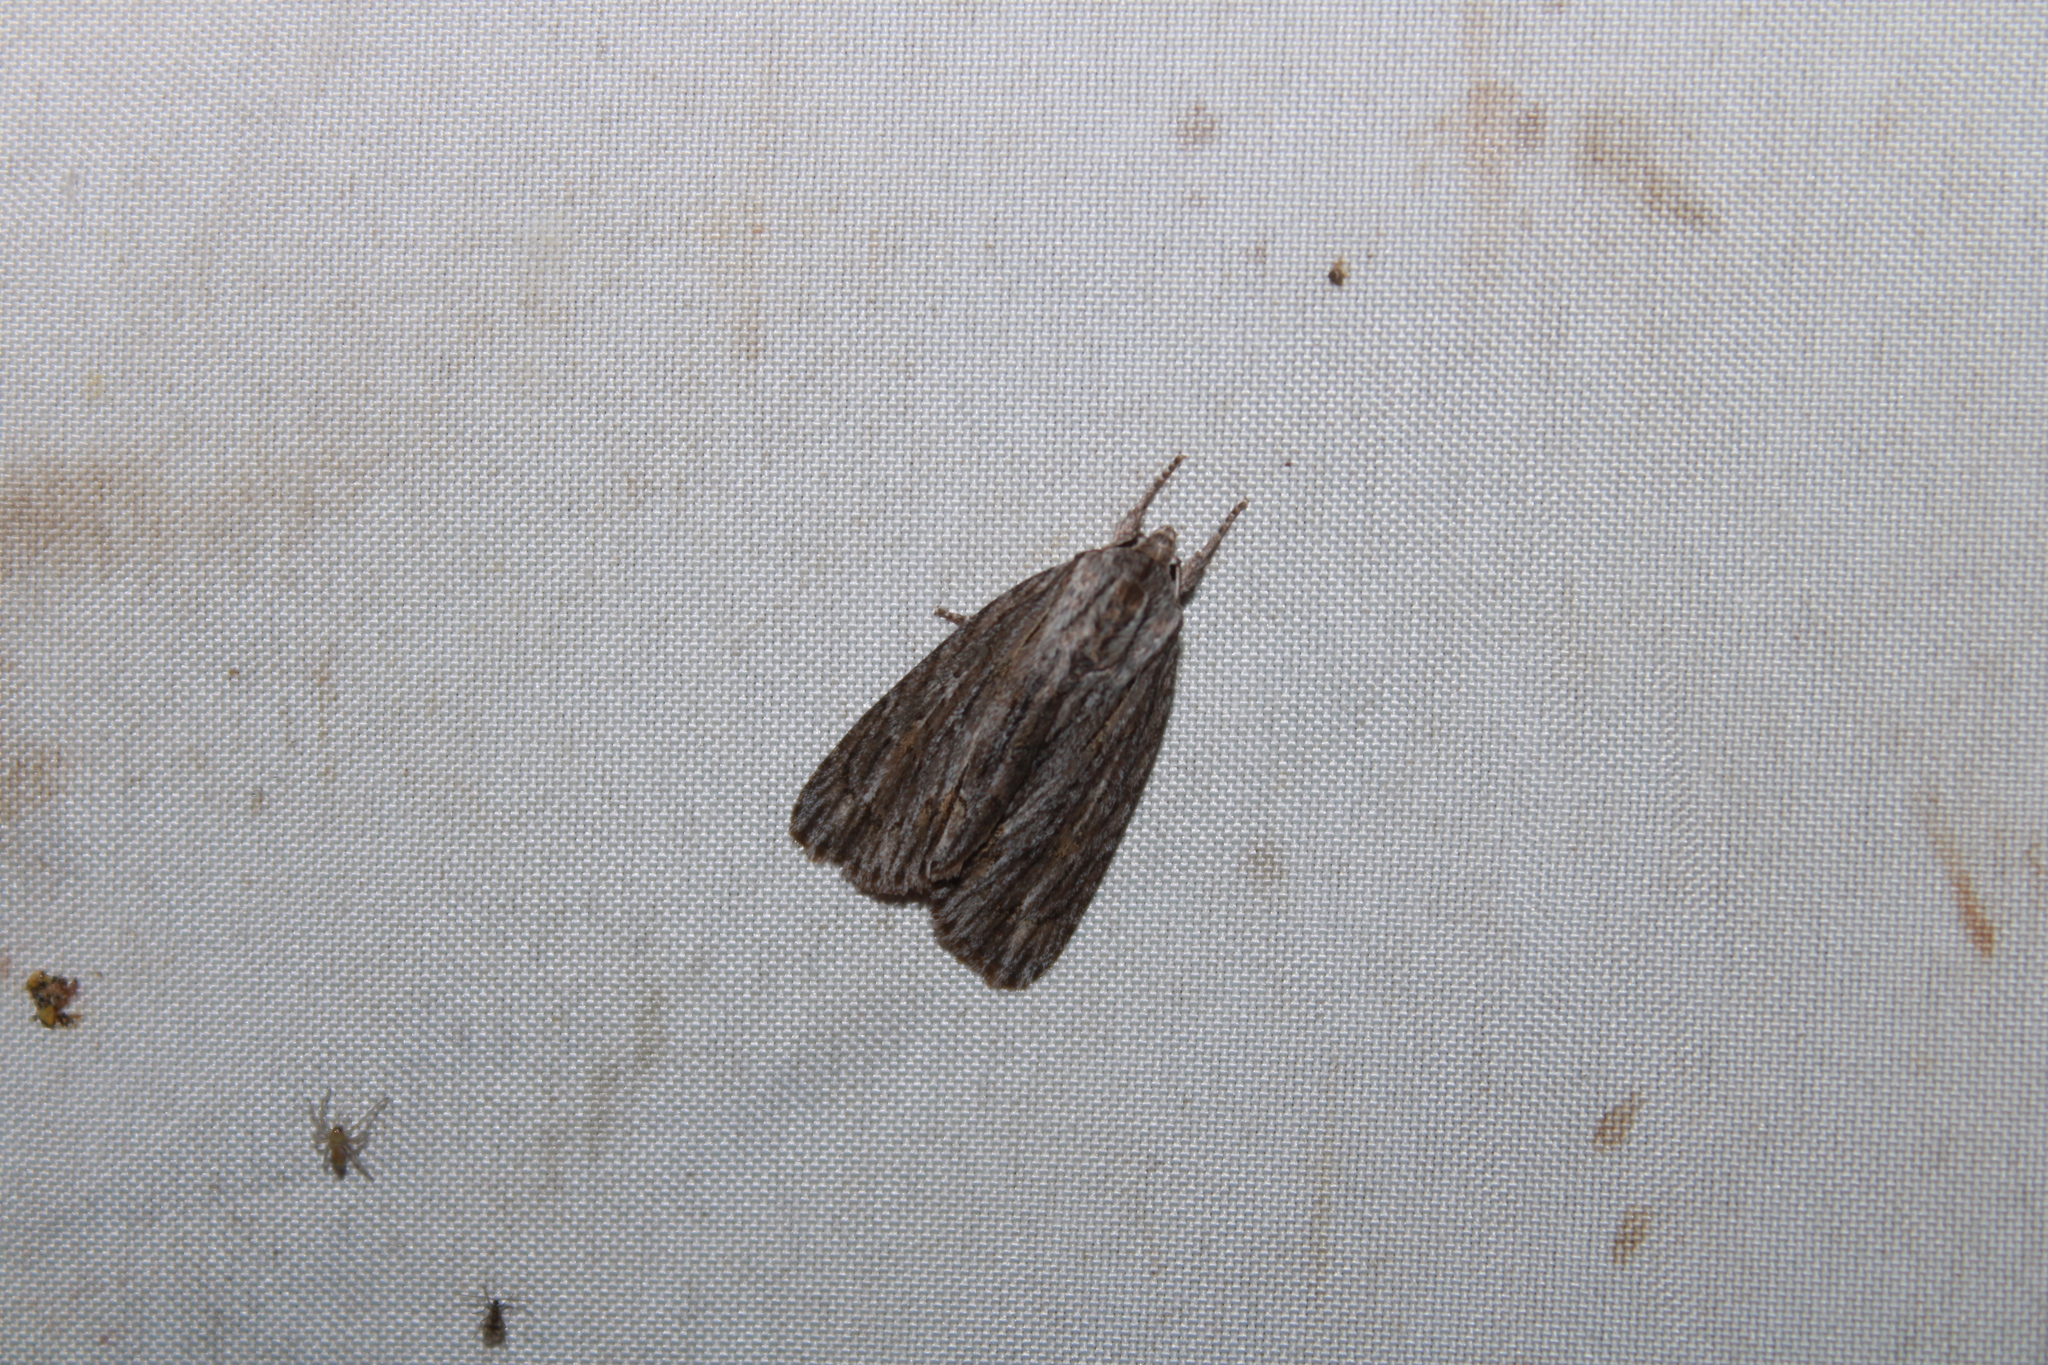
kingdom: Animalia
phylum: Arthropoda
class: Insecta
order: Lepidoptera
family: Noctuidae
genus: Acronicta
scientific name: Acronicta lithospila
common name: Streaked dagger
